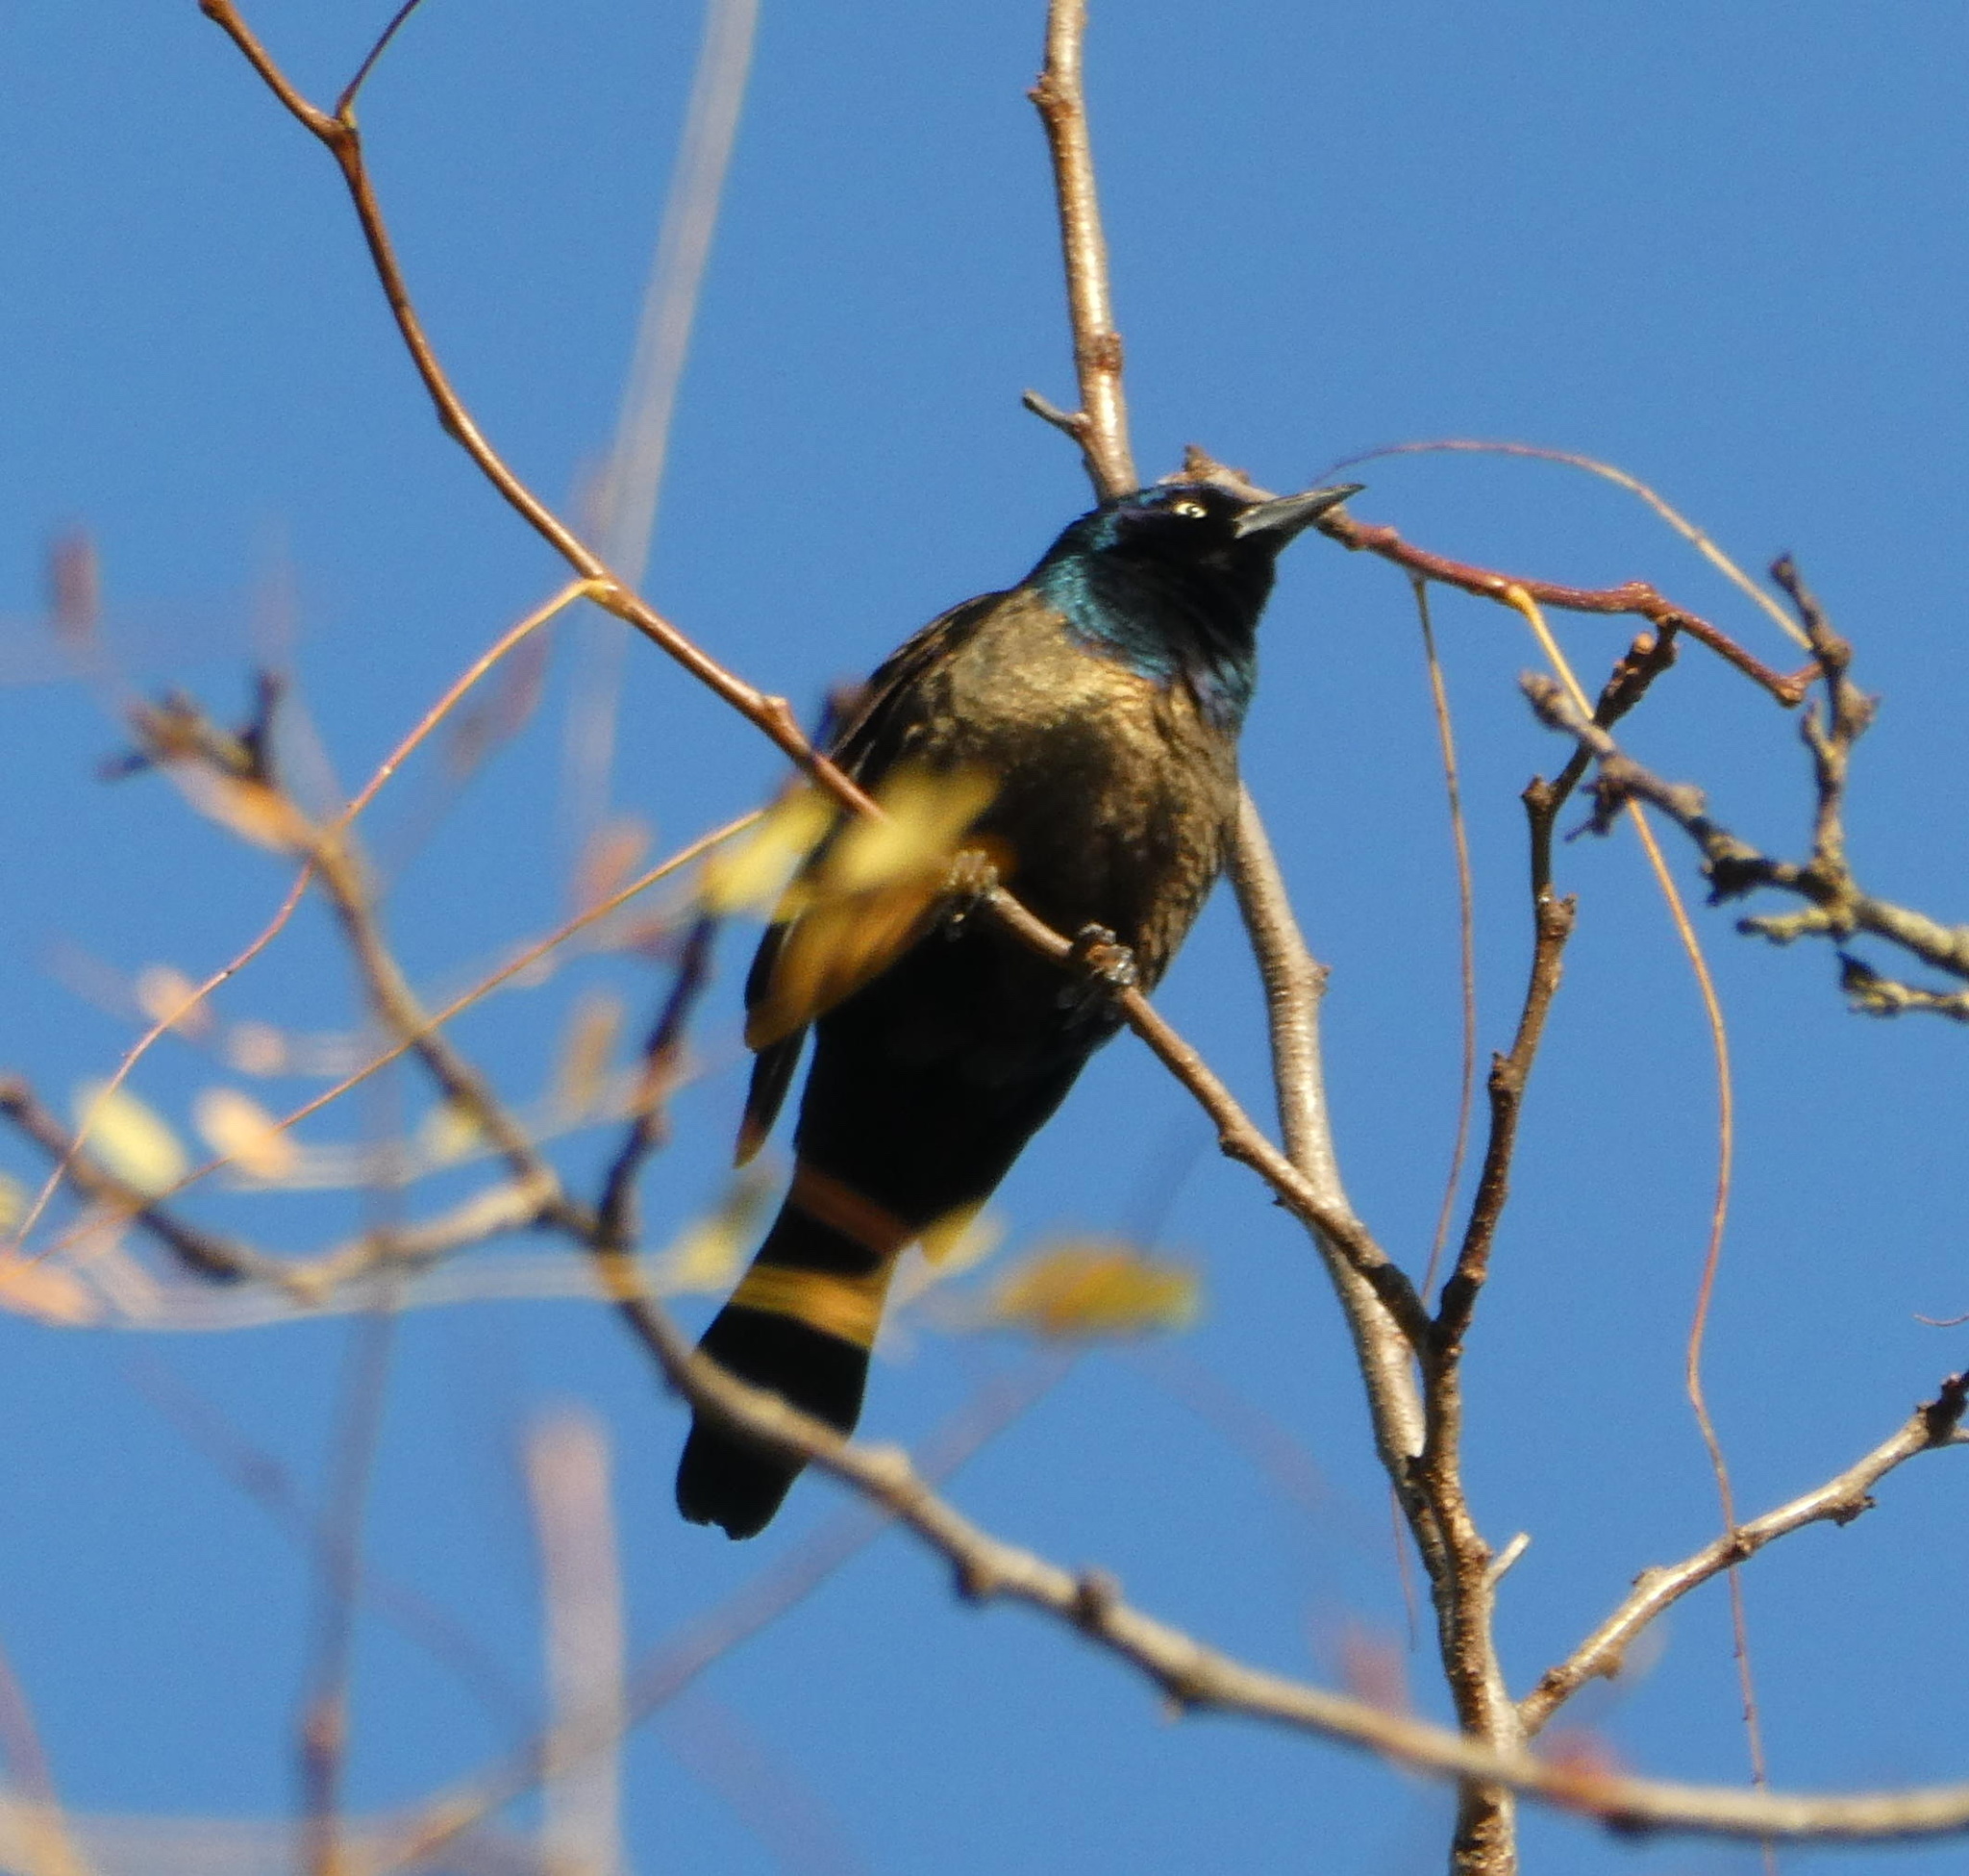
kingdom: Animalia
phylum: Chordata
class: Aves
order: Passeriformes
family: Icteridae
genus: Quiscalus
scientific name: Quiscalus quiscula
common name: Common grackle
